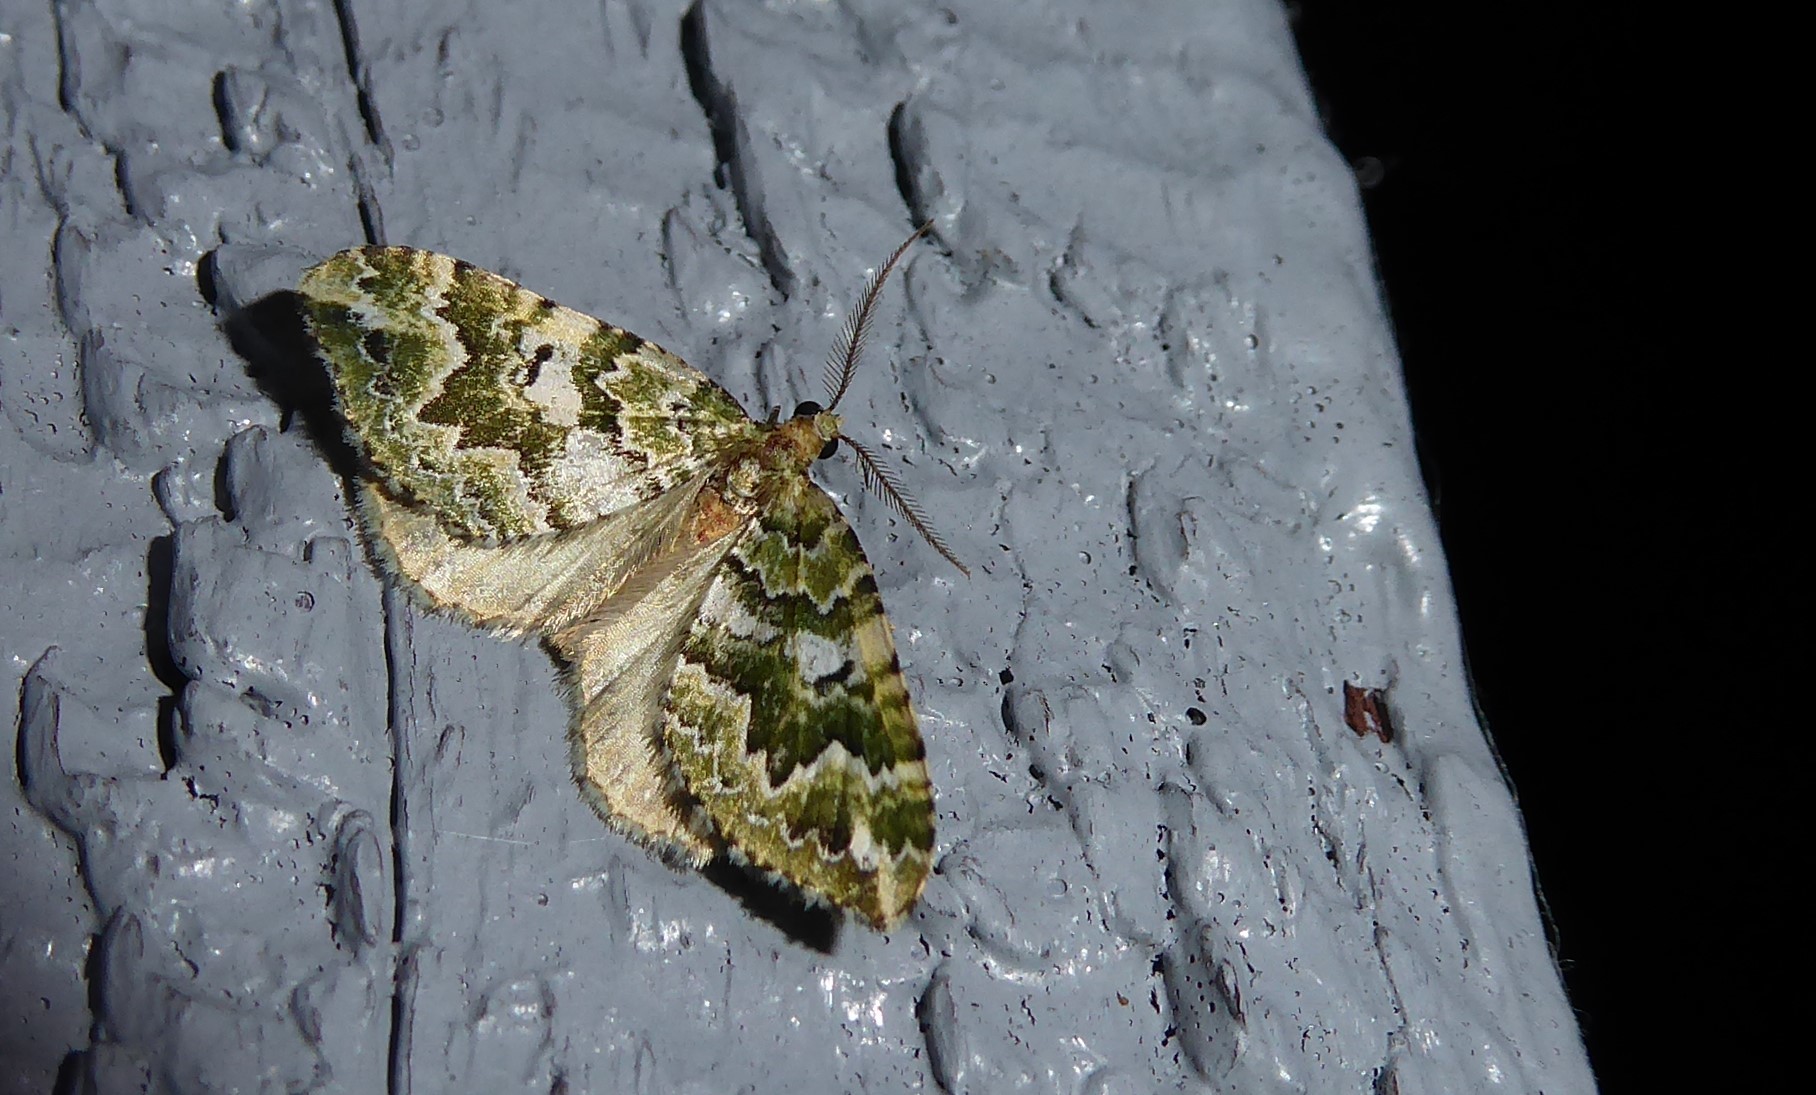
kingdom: Animalia
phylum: Arthropoda
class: Insecta
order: Lepidoptera
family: Geometridae
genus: Asaphodes
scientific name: Asaphodes beata
